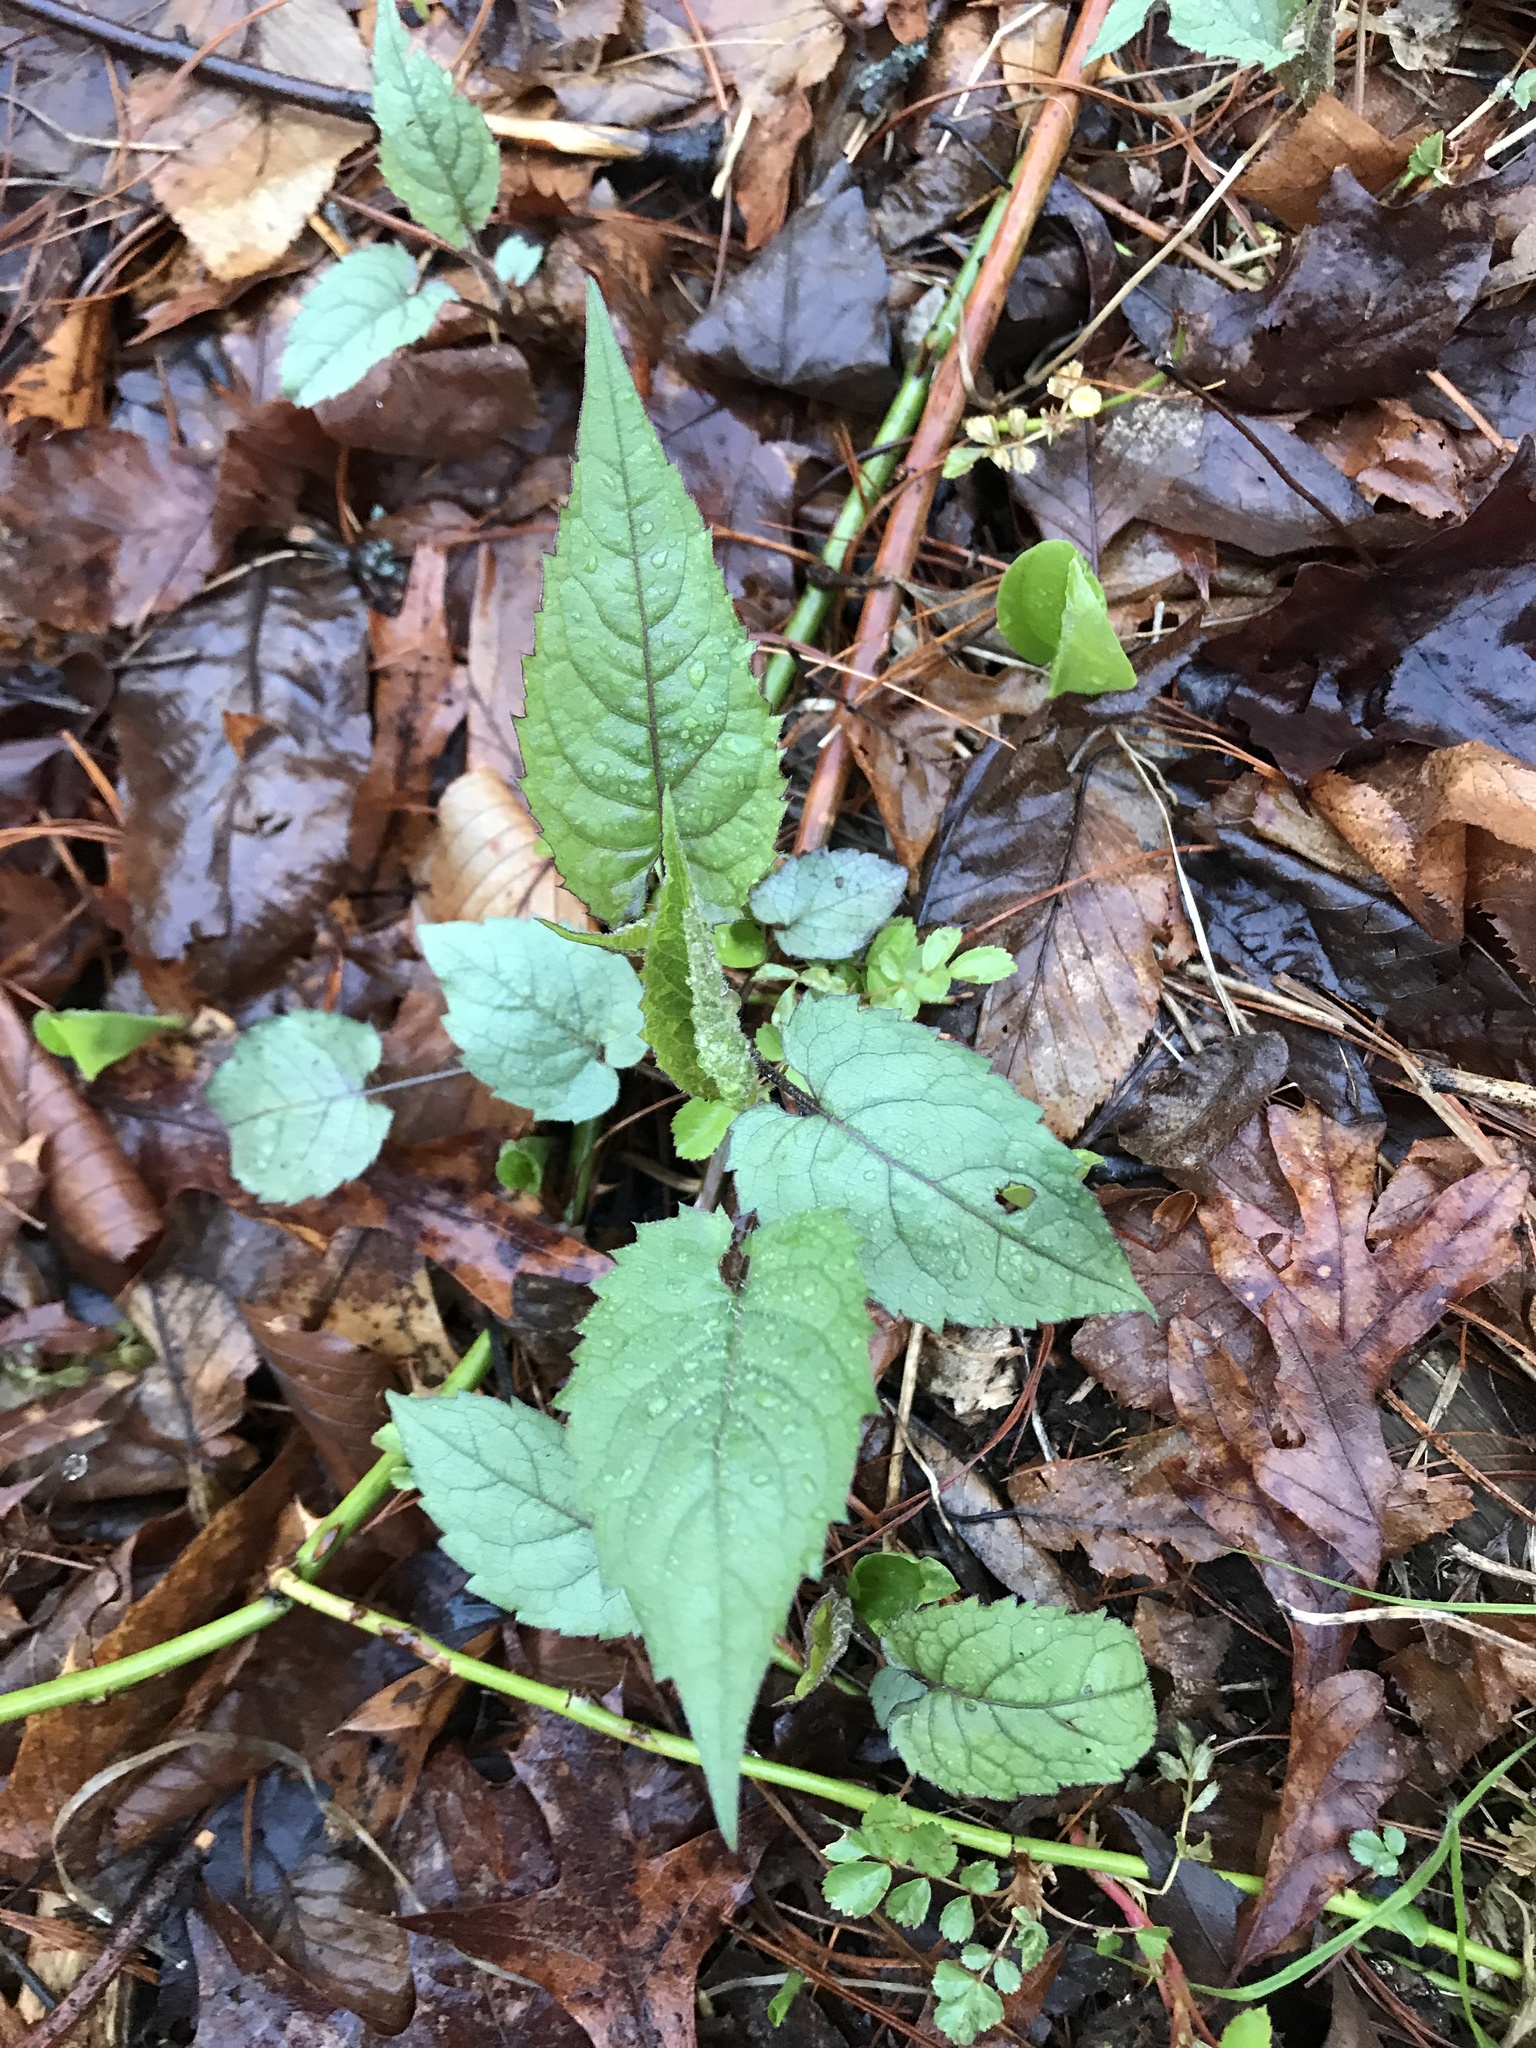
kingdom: Plantae
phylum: Tracheophyta
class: Magnoliopsida
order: Asterales
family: Asteraceae
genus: Eurybia
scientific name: Eurybia divaricata
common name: White wood aster
